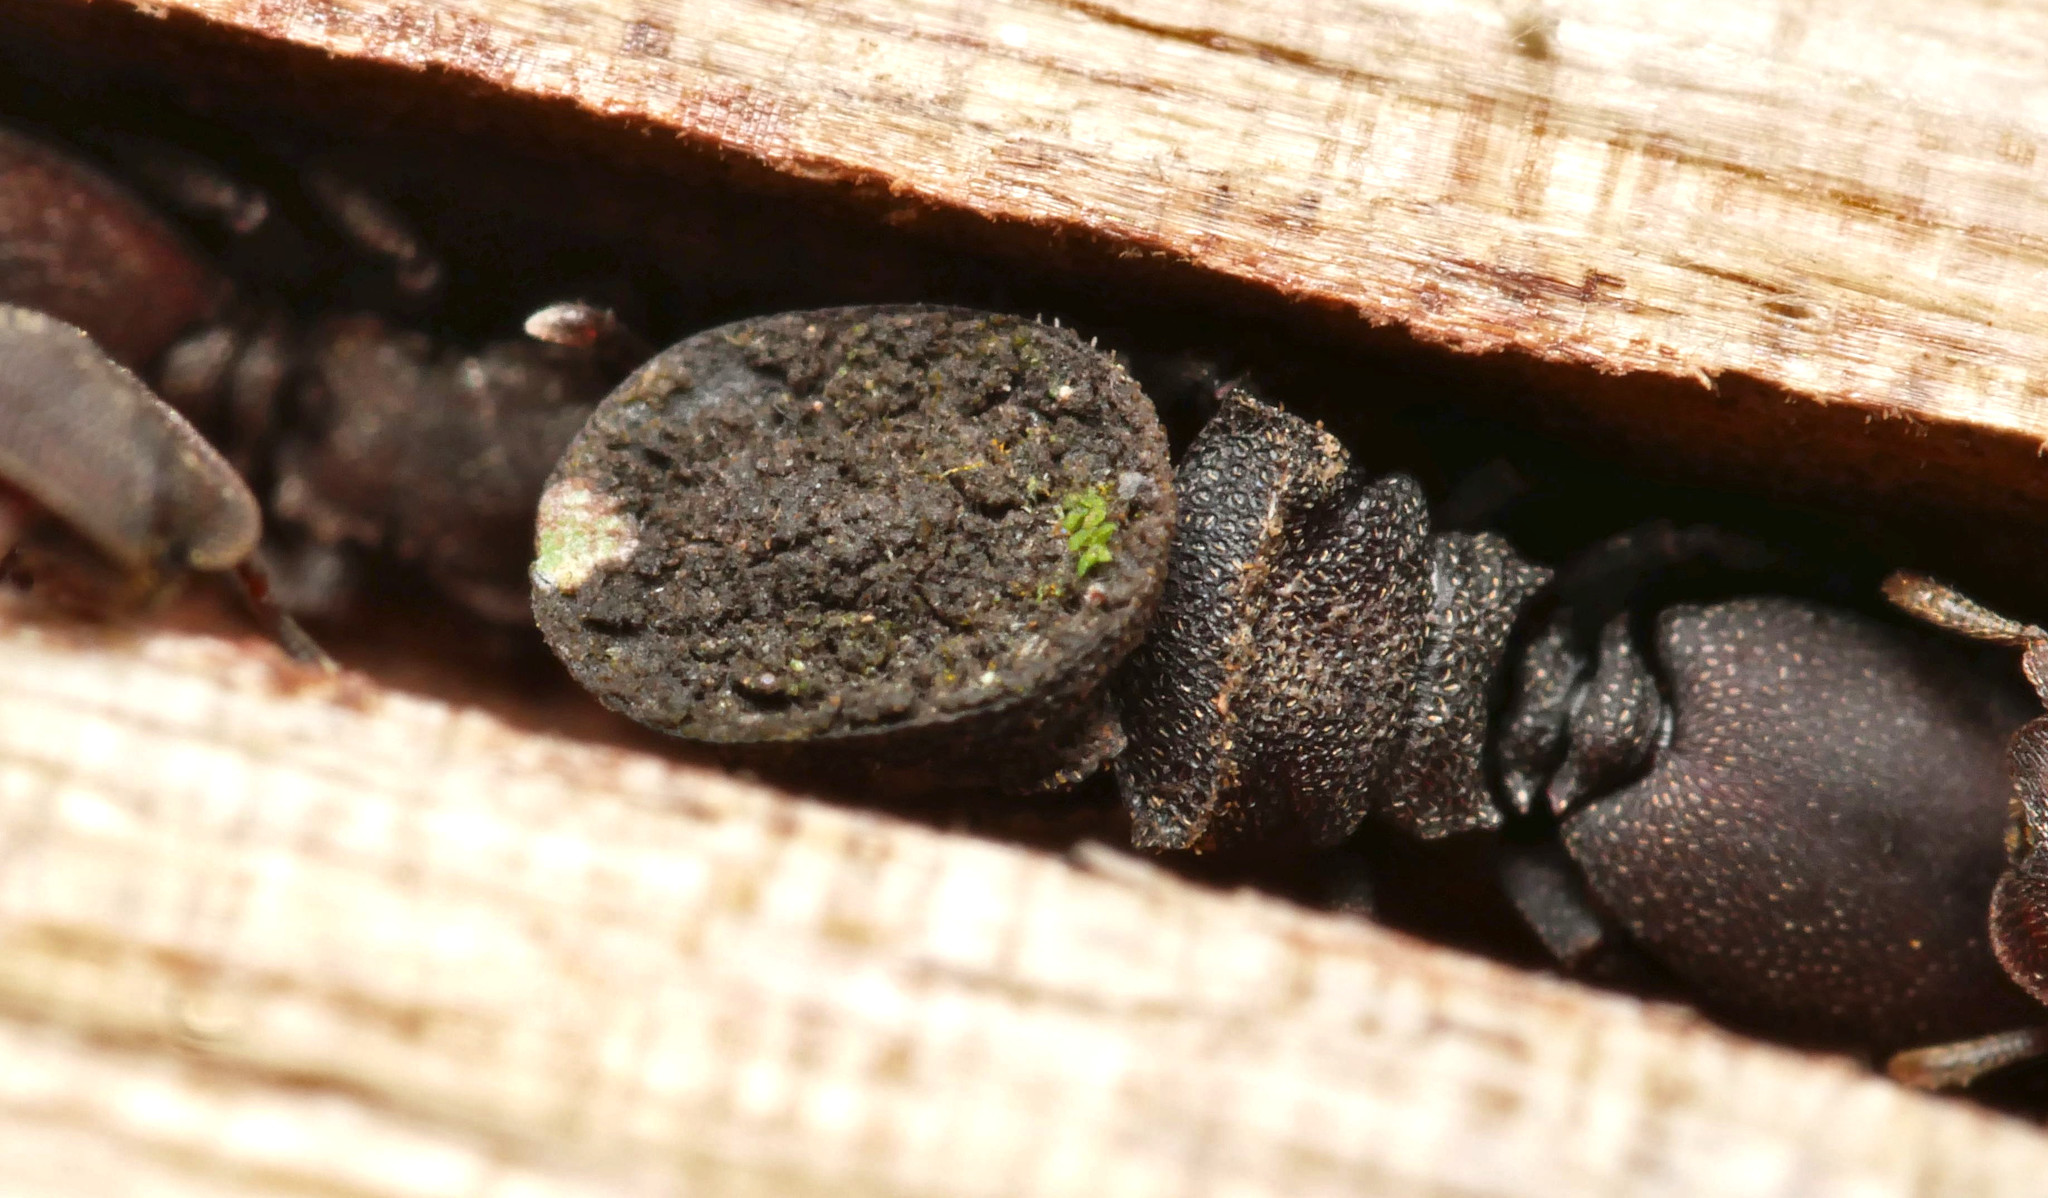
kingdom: Animalia
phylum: Arthropoda
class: Insecta
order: Hymenoptera
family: Formicidae
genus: Cephalotes
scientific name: Cephalotes pallens
